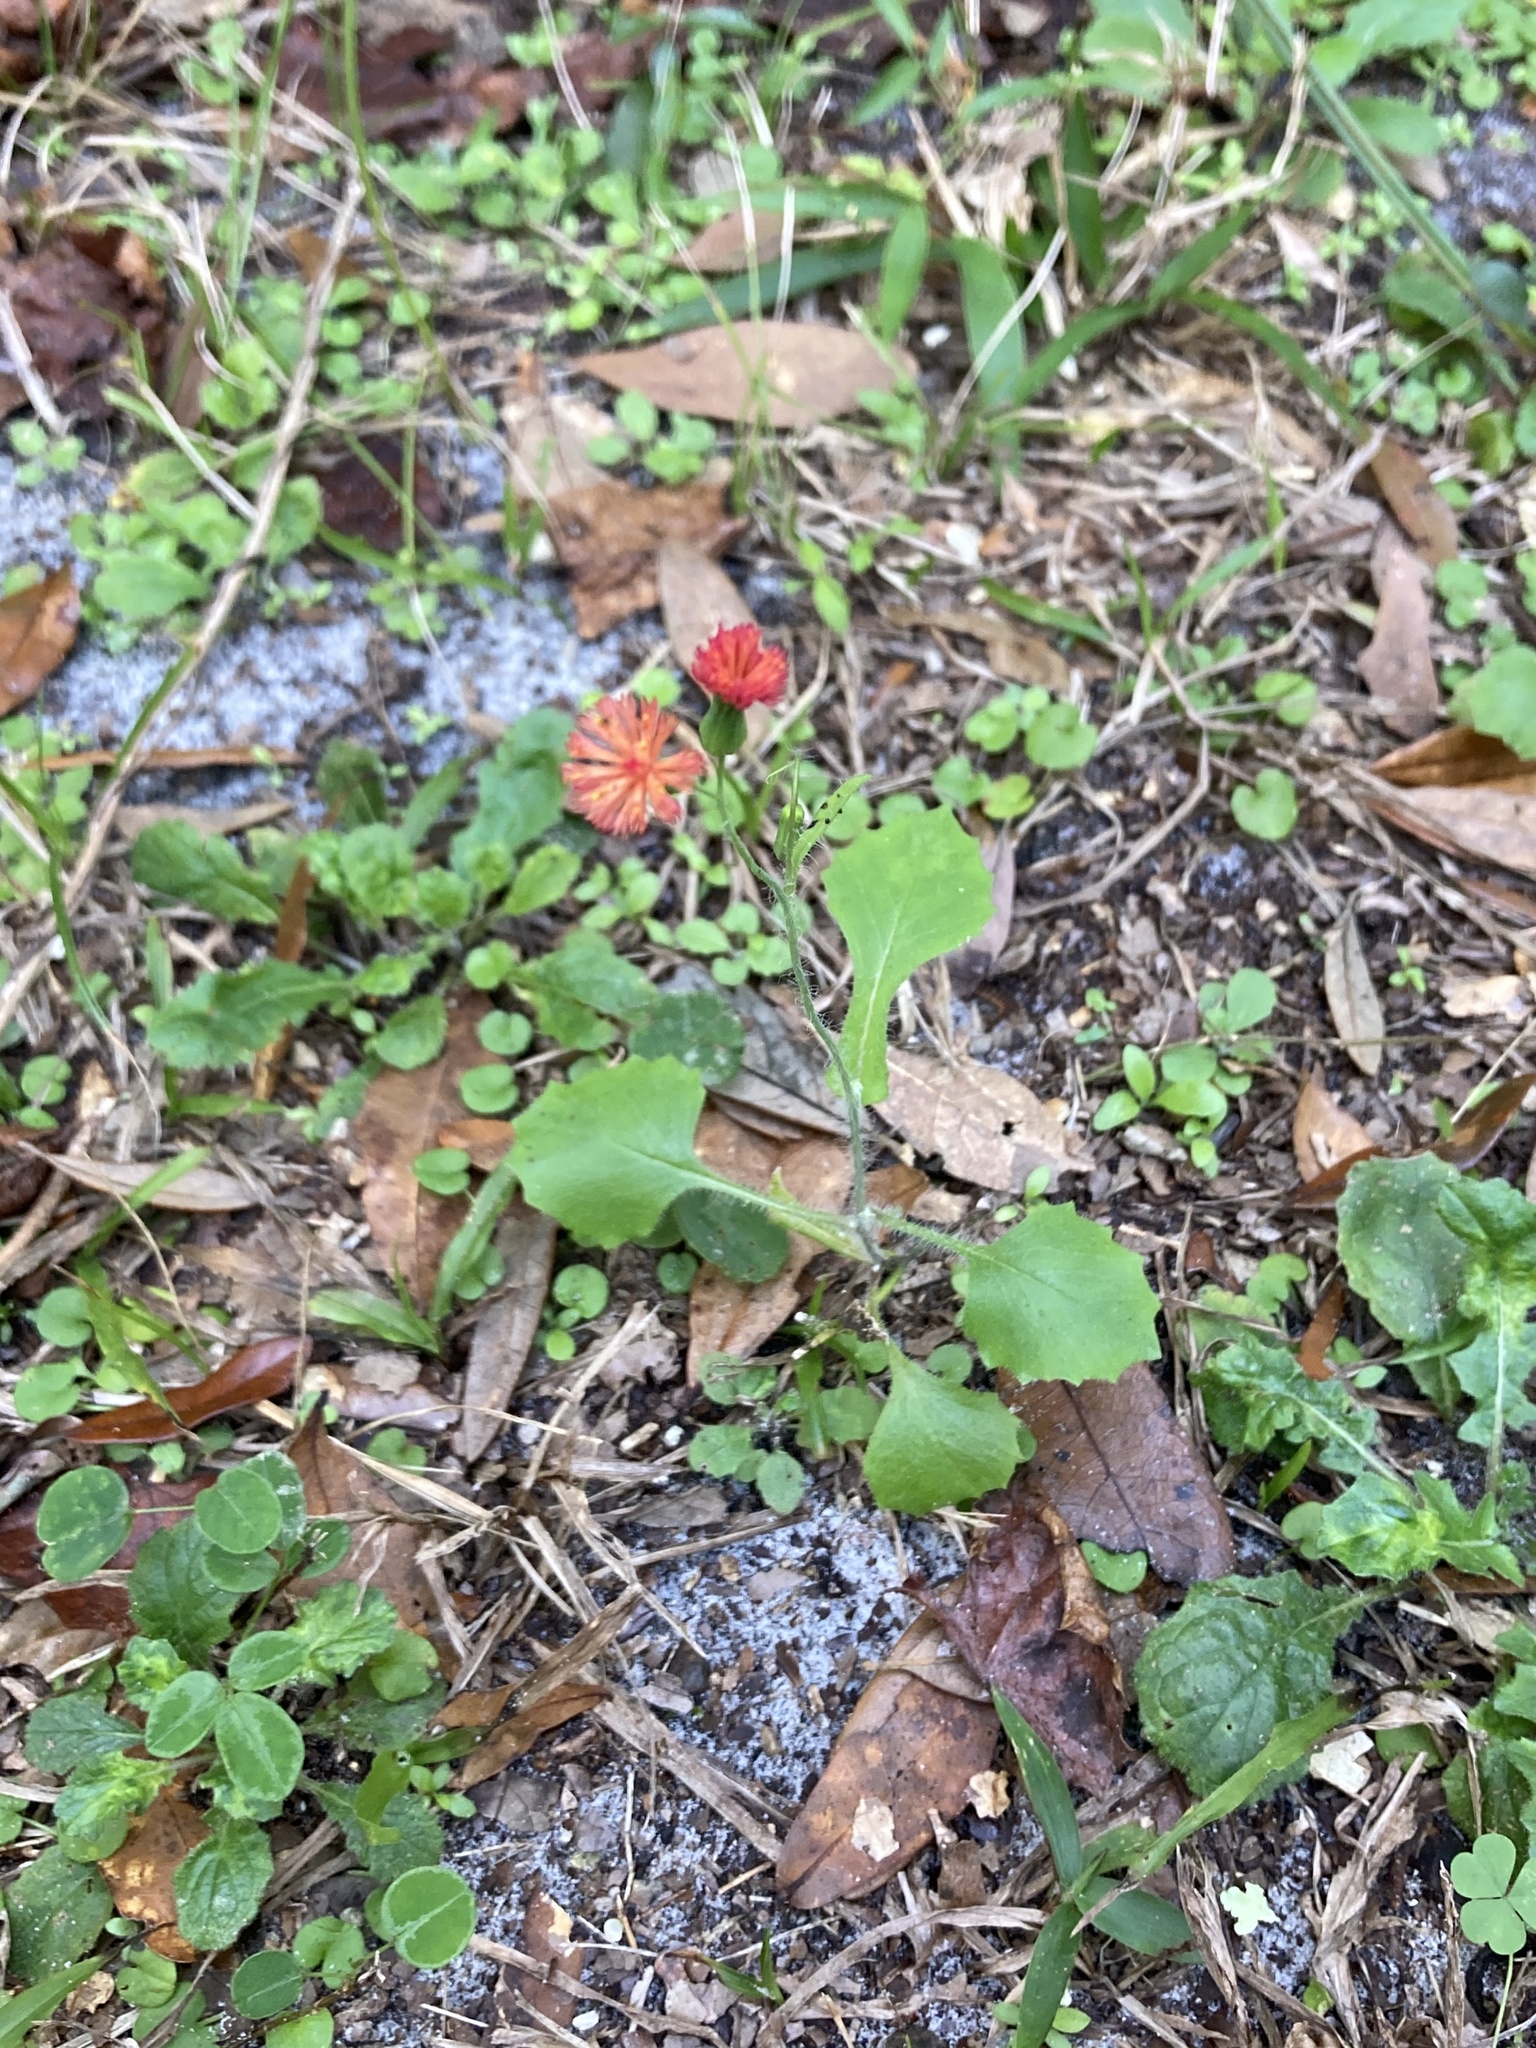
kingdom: Plantae
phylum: Tracheophyta
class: Magnoliopsida
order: Asterales
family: Asteraceae
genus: Emilia
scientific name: Emilia fosbergii
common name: Florida tasselflower
